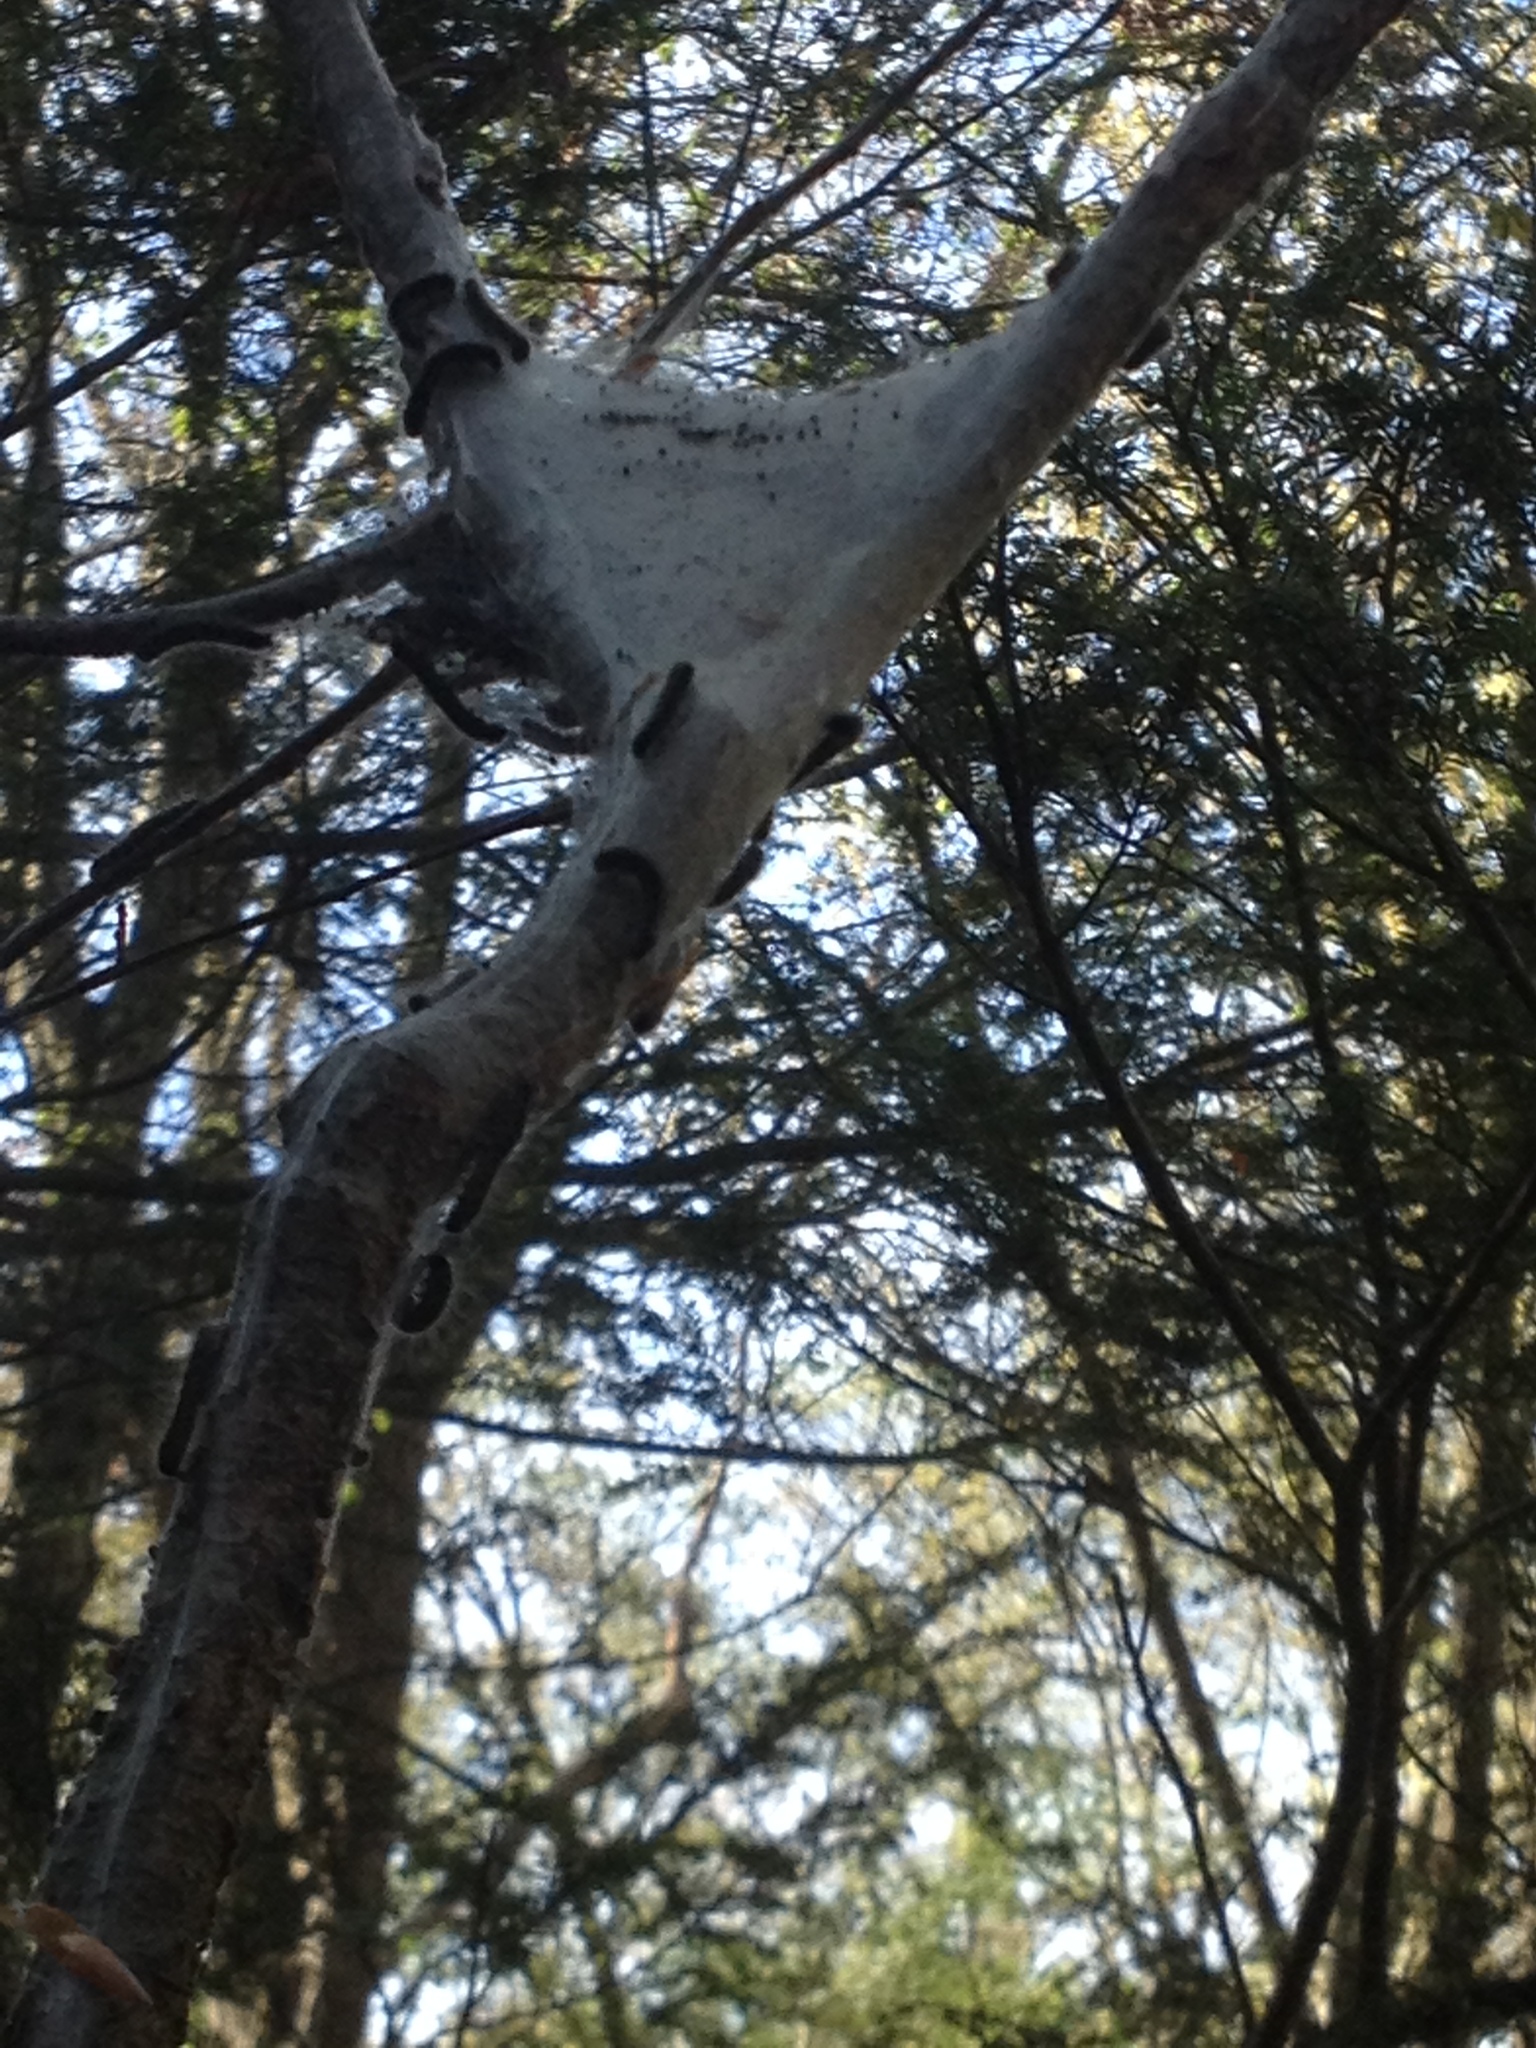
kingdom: Animalia
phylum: Arthropoda
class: Insecta
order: Lepidoptera
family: Lasiocampidae
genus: Malacosoma
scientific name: Malacosoma americana
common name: Eastern tent caterpillar moth
